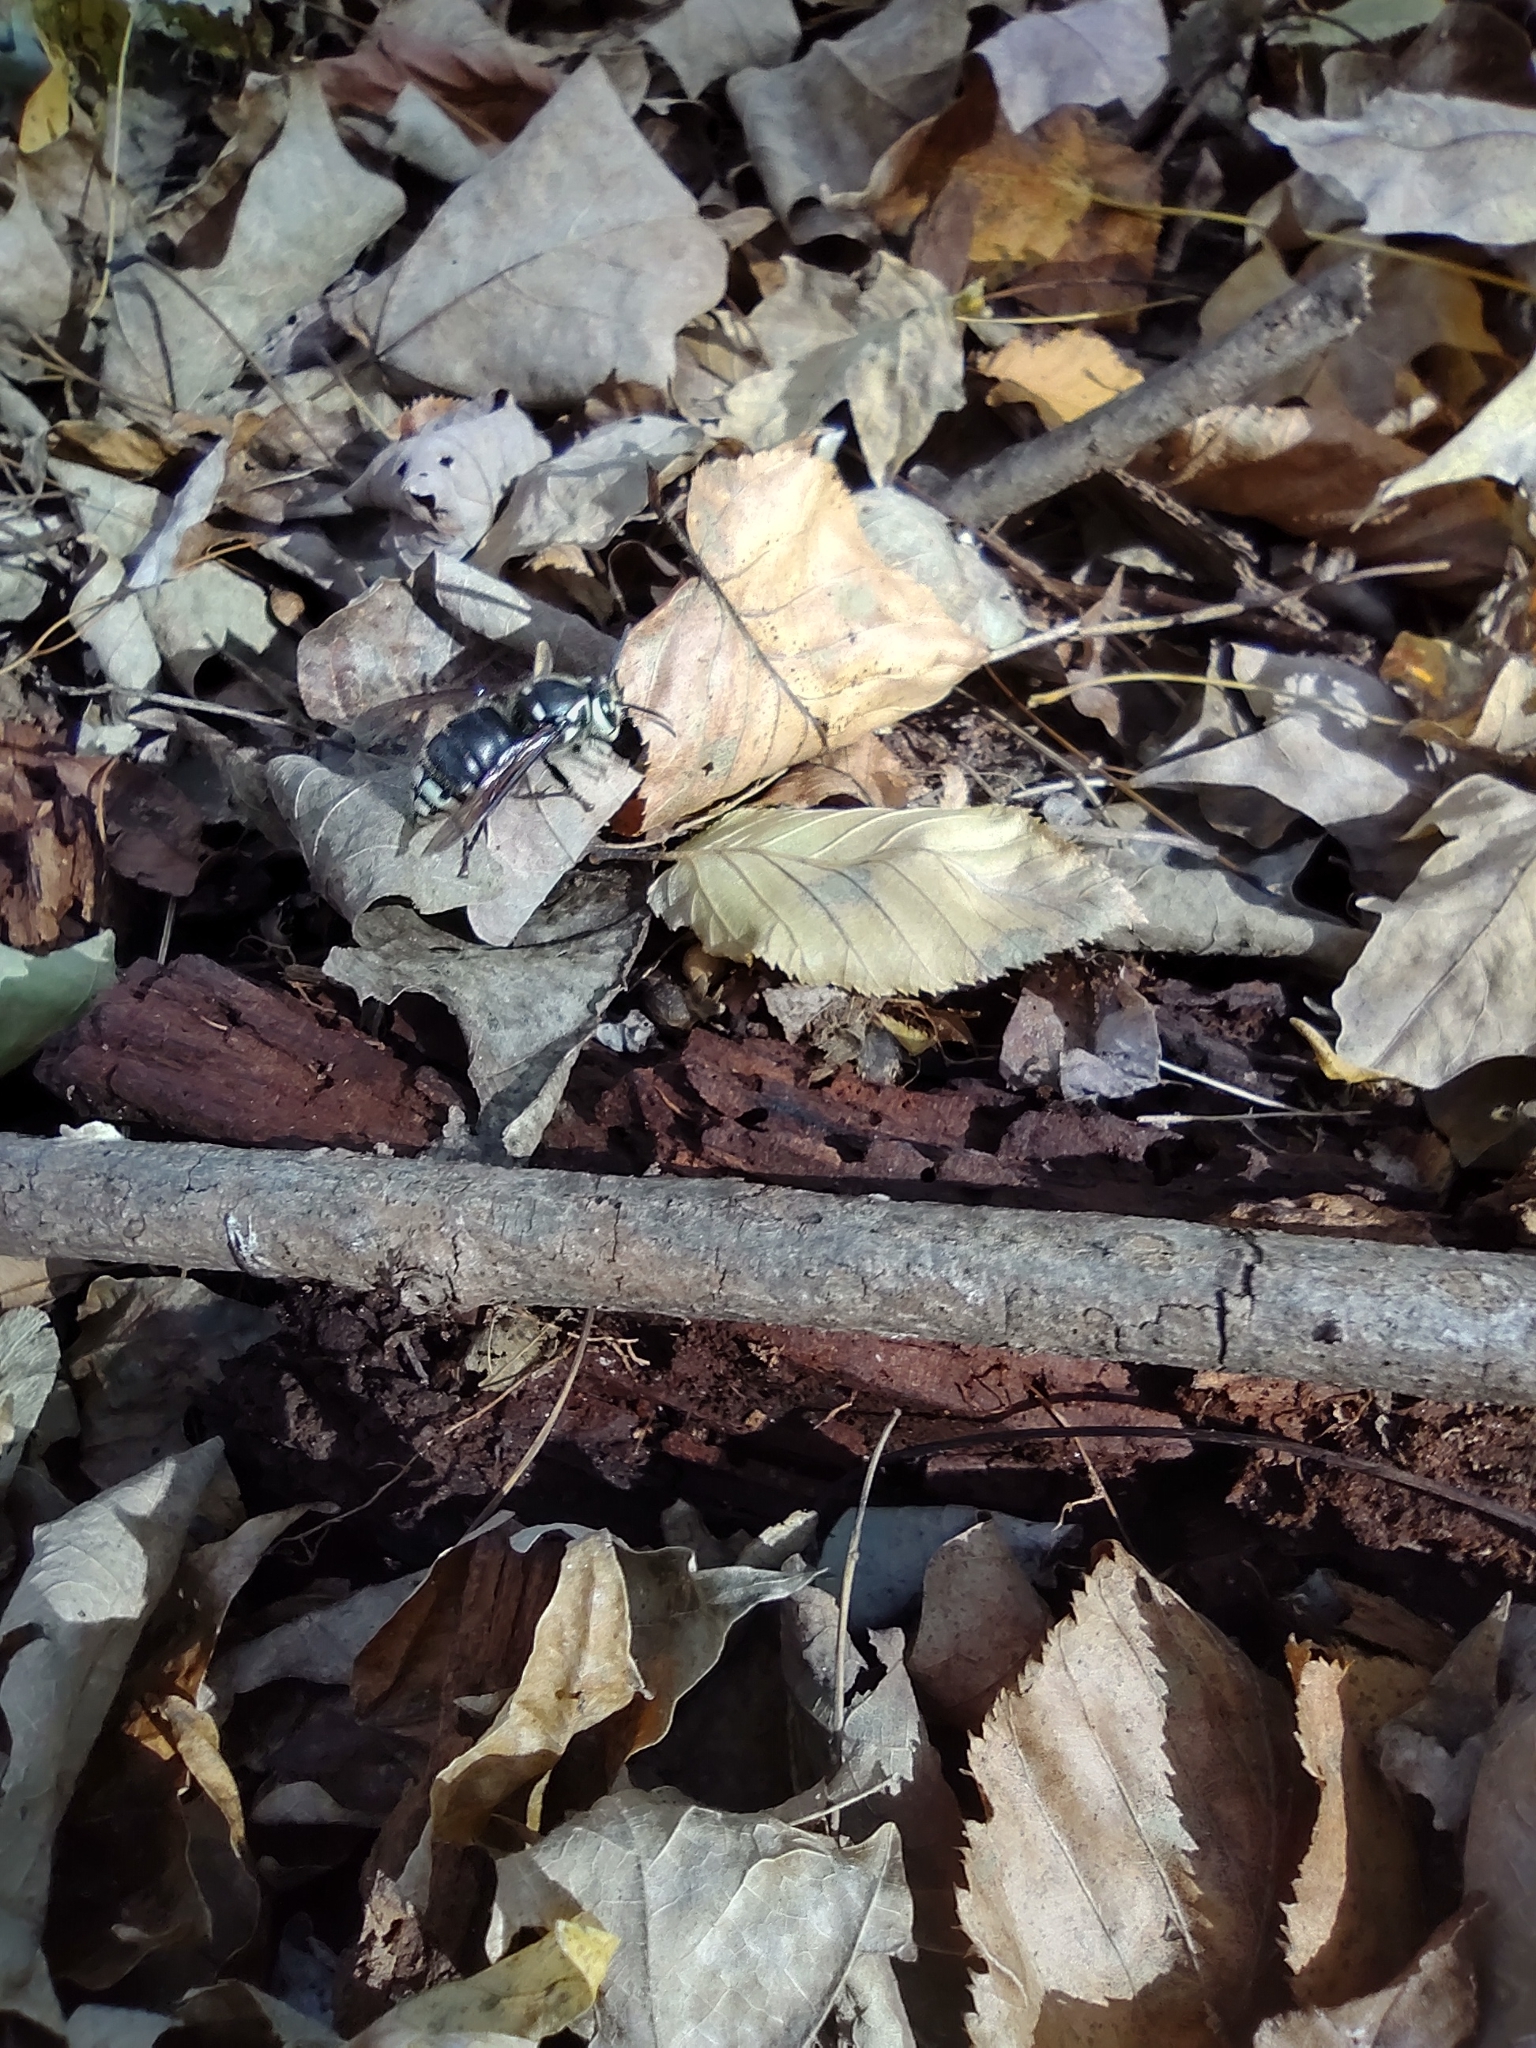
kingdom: Animalia
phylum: Arthropoda
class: Insecta
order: Hymenoptera
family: Vespidae
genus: Dolichovespula
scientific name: Dolichovespula maculata
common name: Bald-faced hornet
